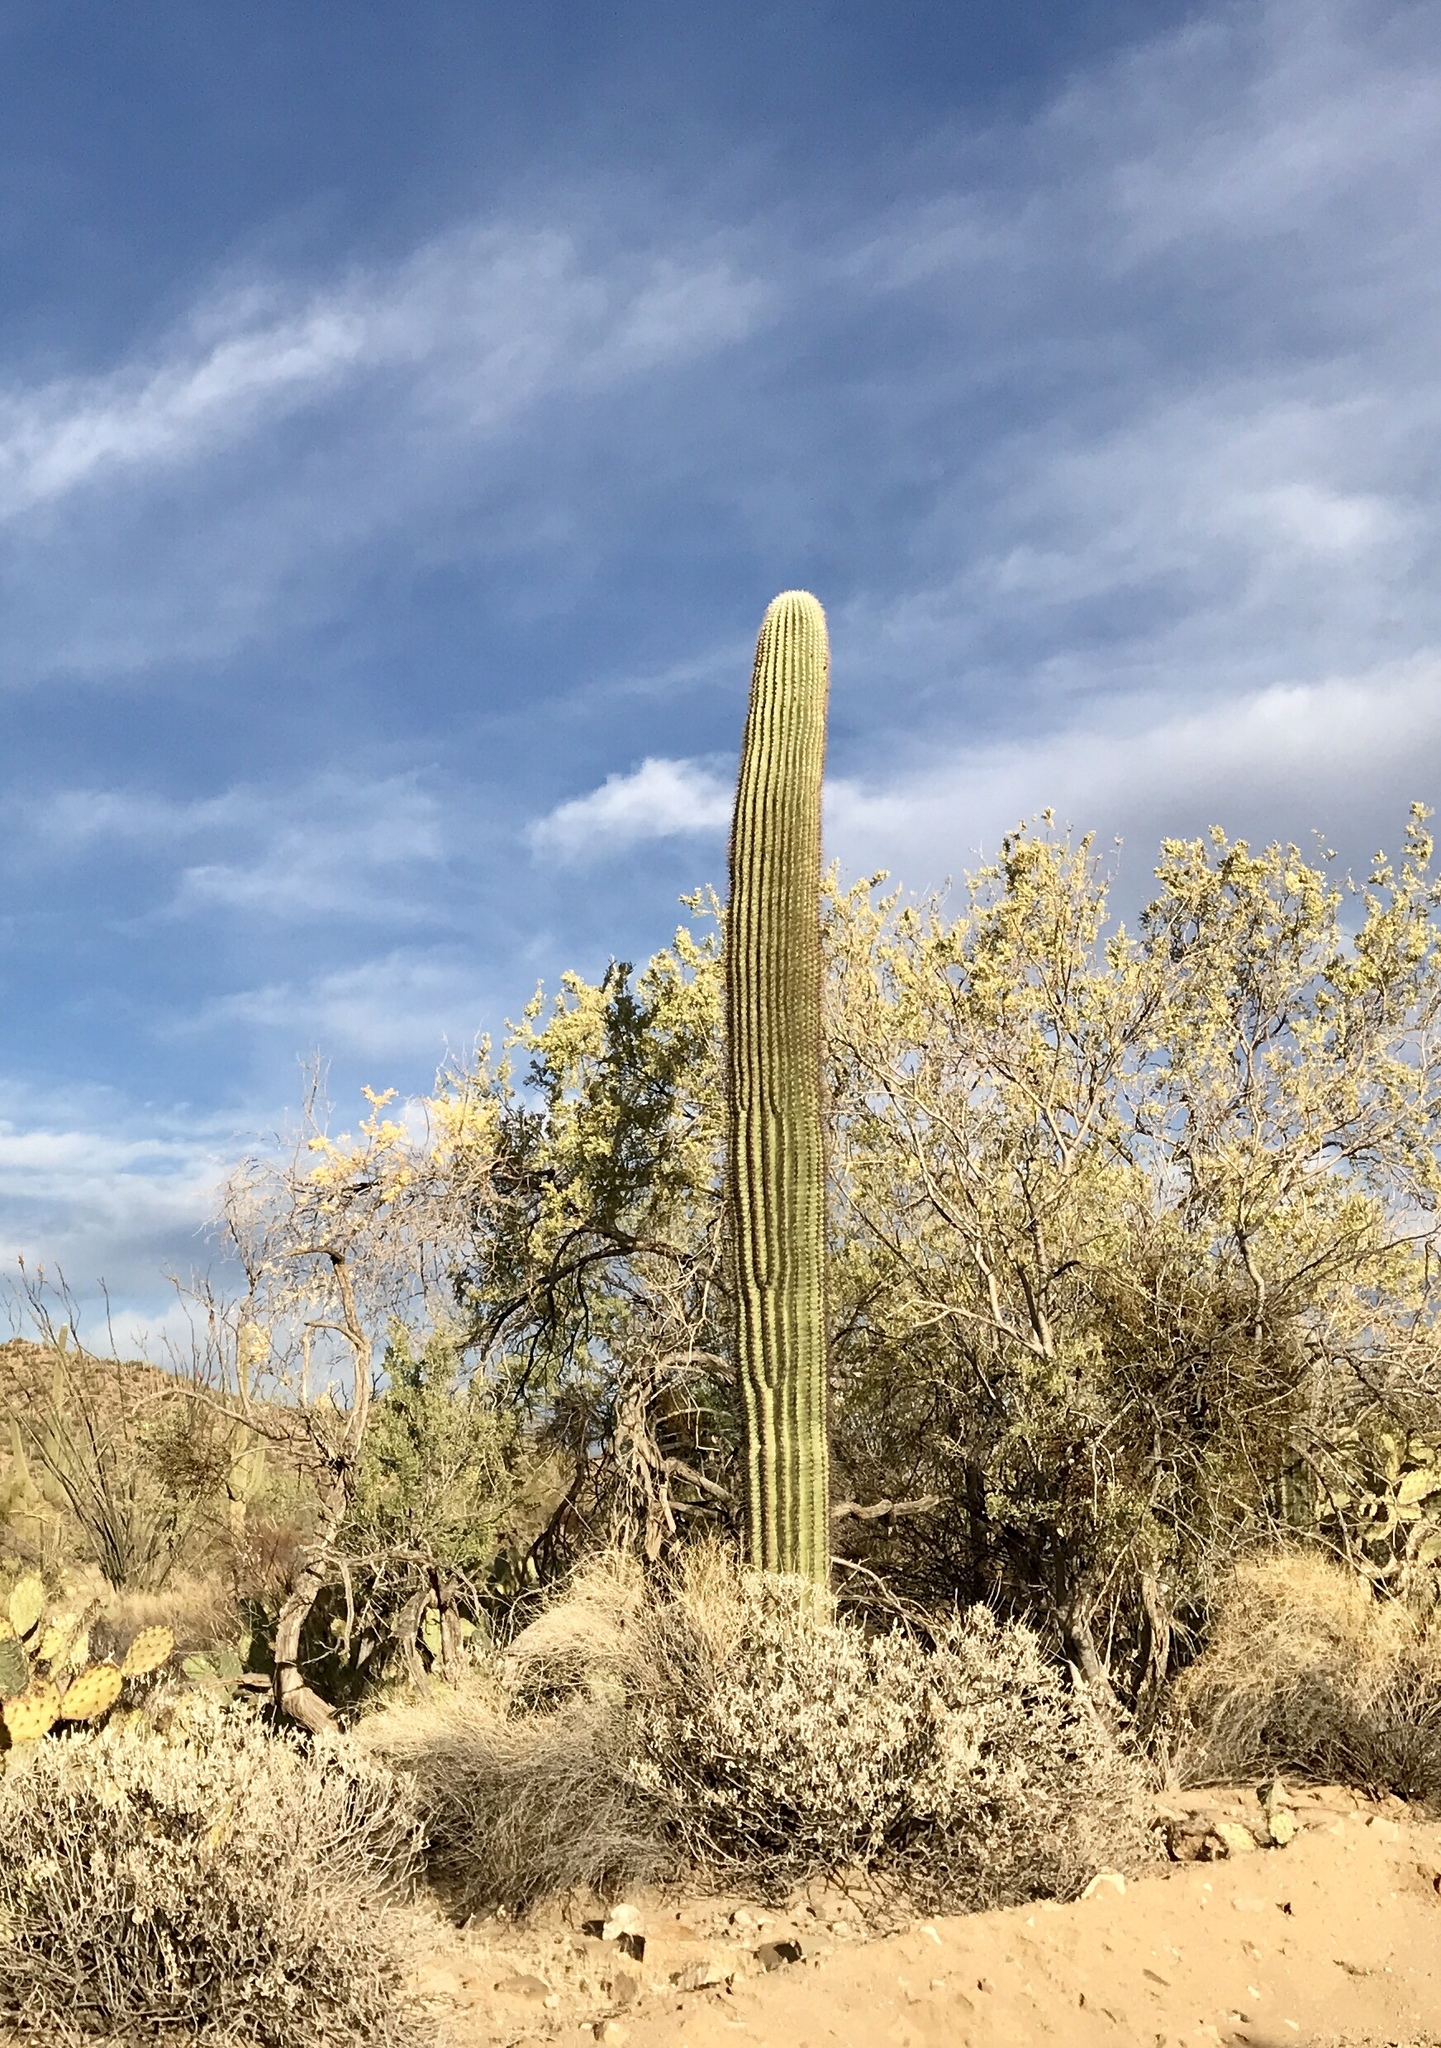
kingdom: Plantae
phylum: Tracheophyta
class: Magnoliopsida
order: Caryophyllales
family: Cactaceae
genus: Carnegiea
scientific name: Carnegiea gigantea
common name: Saguaro
